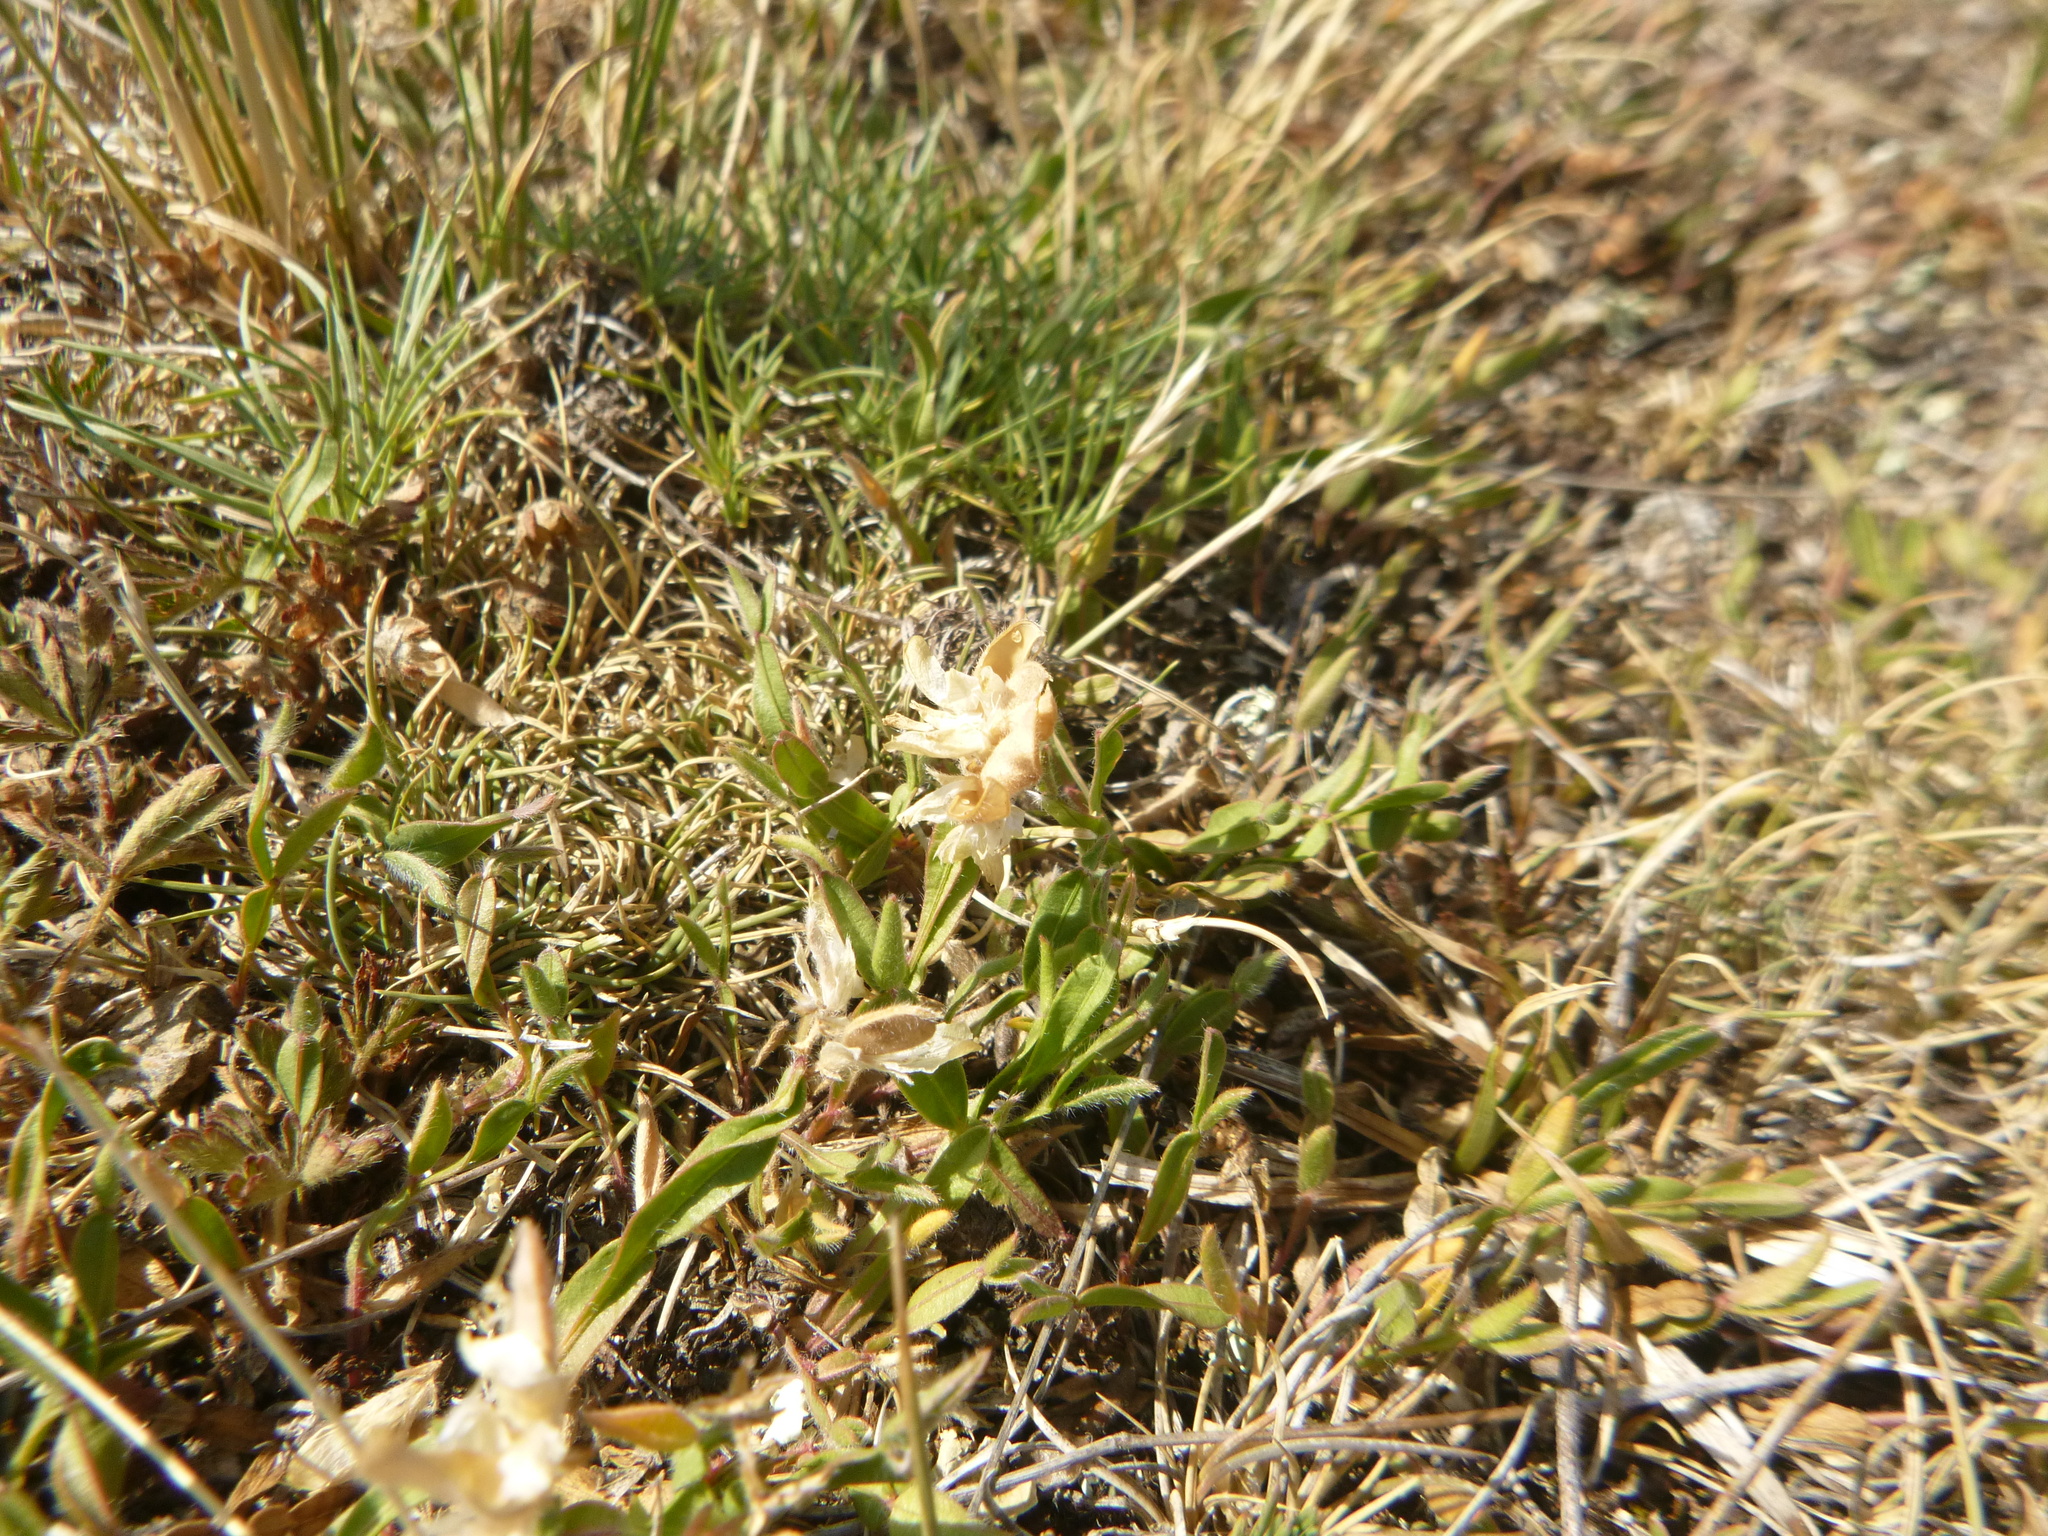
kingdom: Plantae
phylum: Tracheophyta
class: Magnoliopsida
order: Fabales
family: Fabaceae
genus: Genista
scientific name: Genista sagittalis
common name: Winged greenweed
